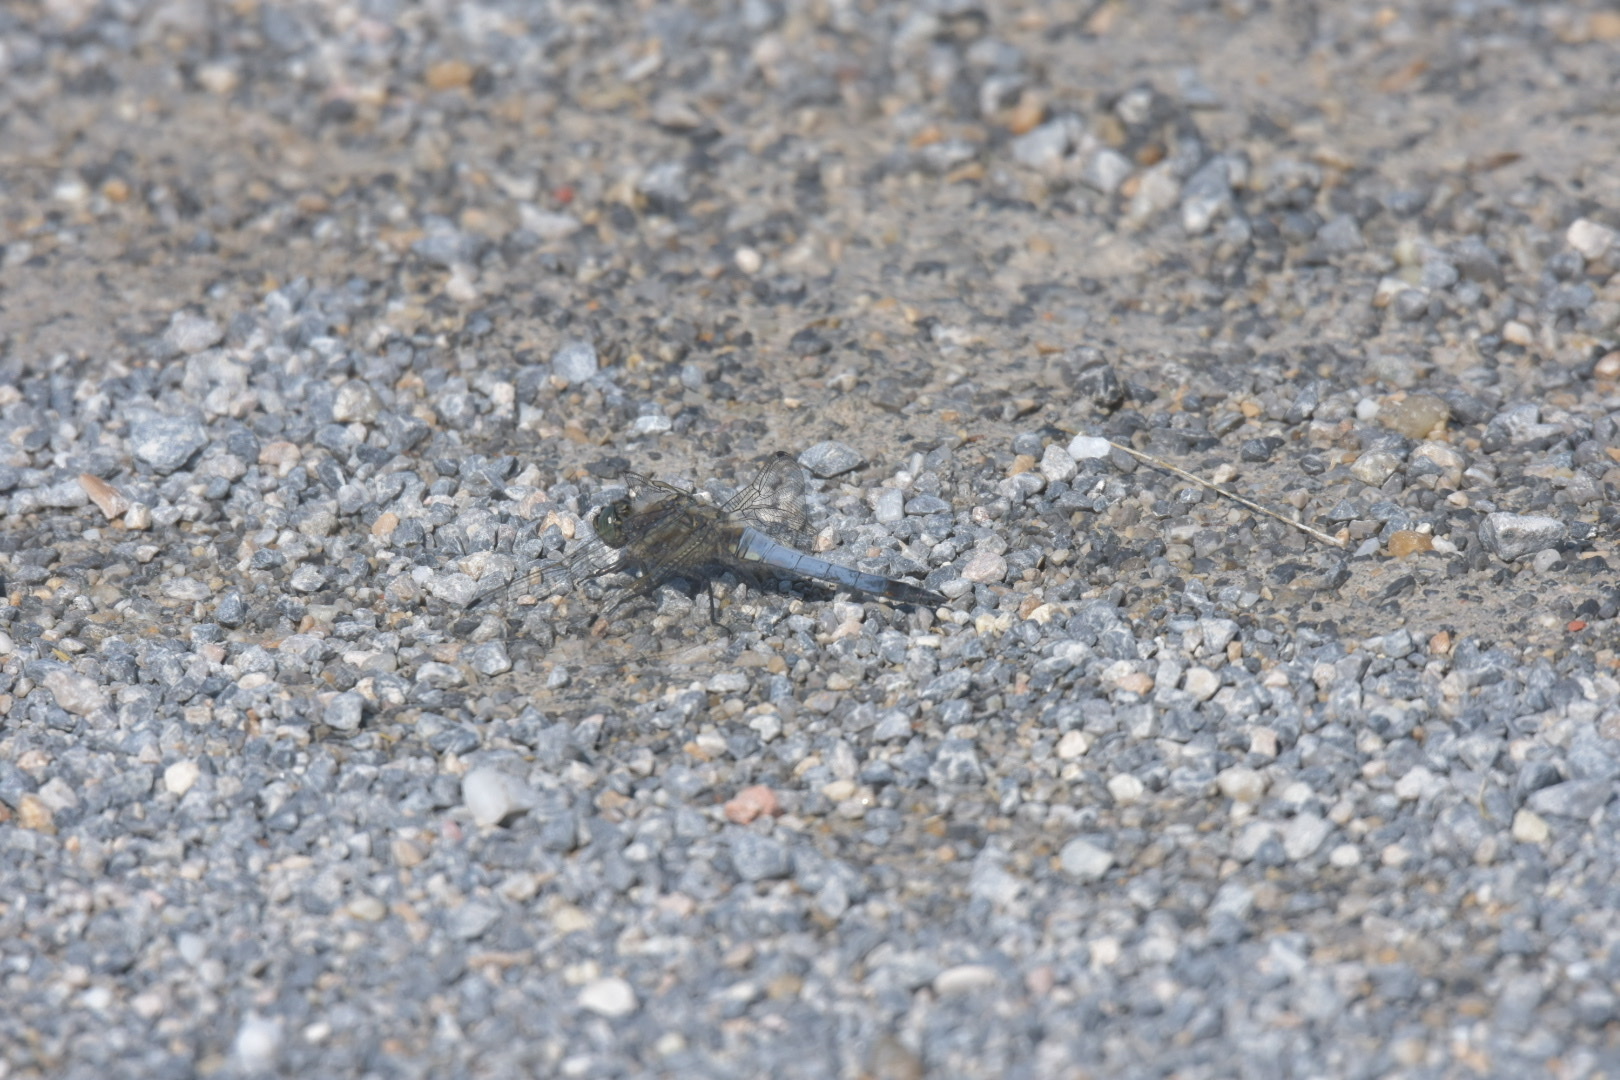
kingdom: Animalia
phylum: Arthropoda
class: Insecta
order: Odonata
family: Libellulidae
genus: Orthetrum
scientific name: Orthetrum cancellatum
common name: Black-tailed skimmer
